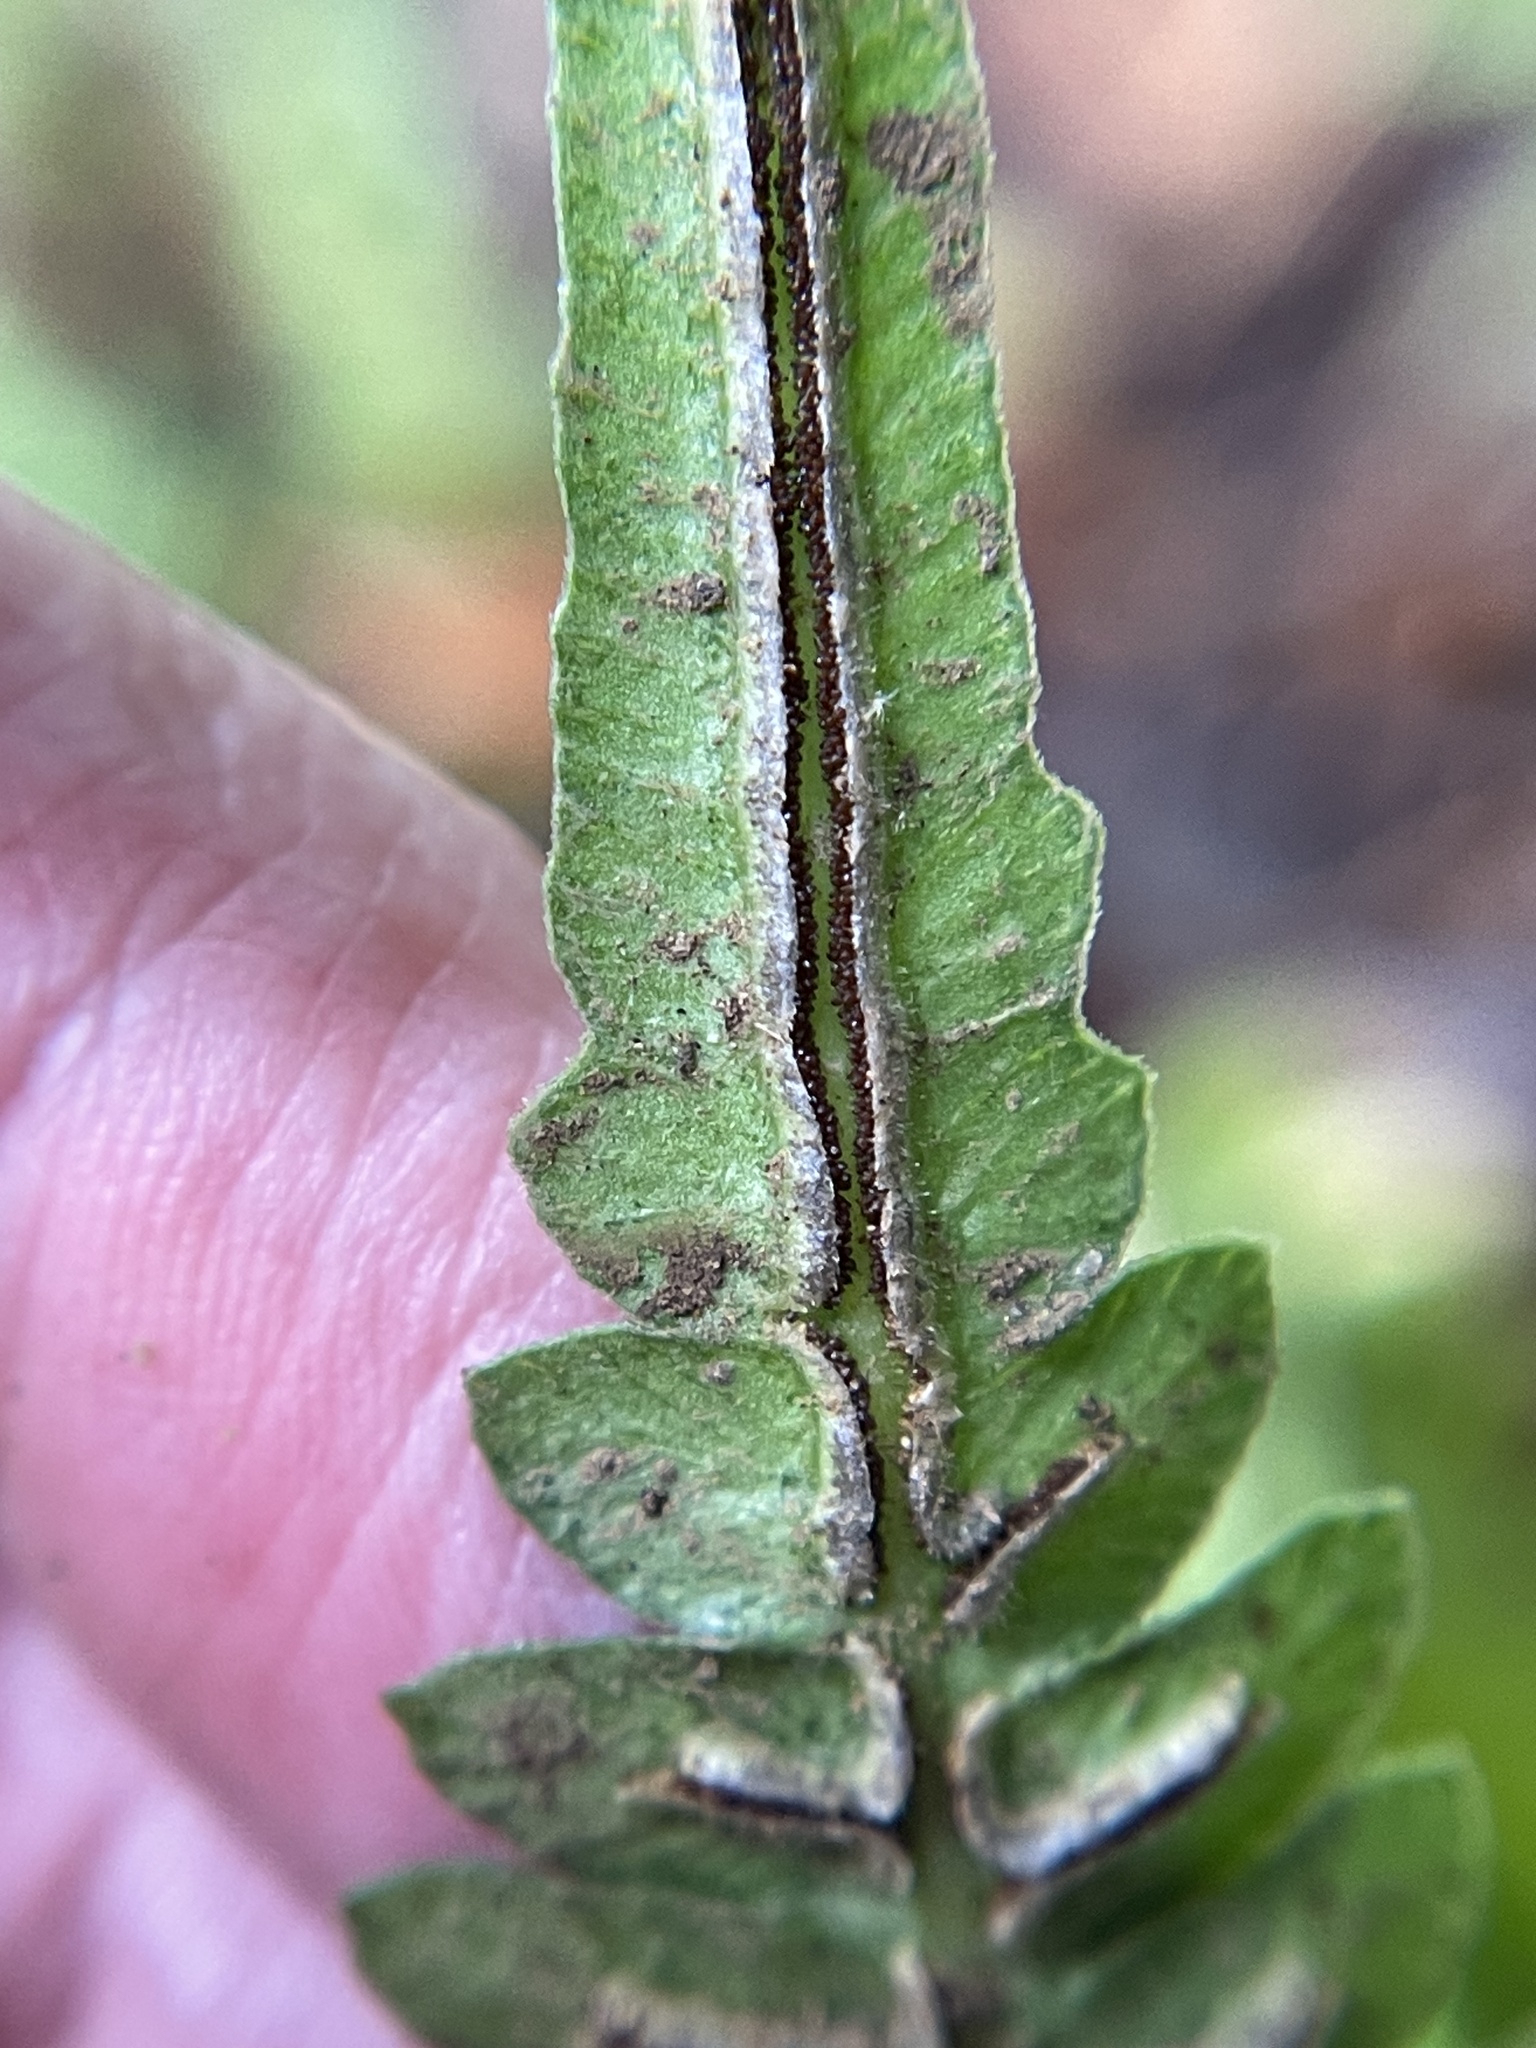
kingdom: Plantae
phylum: Tracheophyta
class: Polypodiopsida
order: Polypodiales
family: Blechnaceae
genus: Blechnum
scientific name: Blechnum appendiculatum
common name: Palm fern
